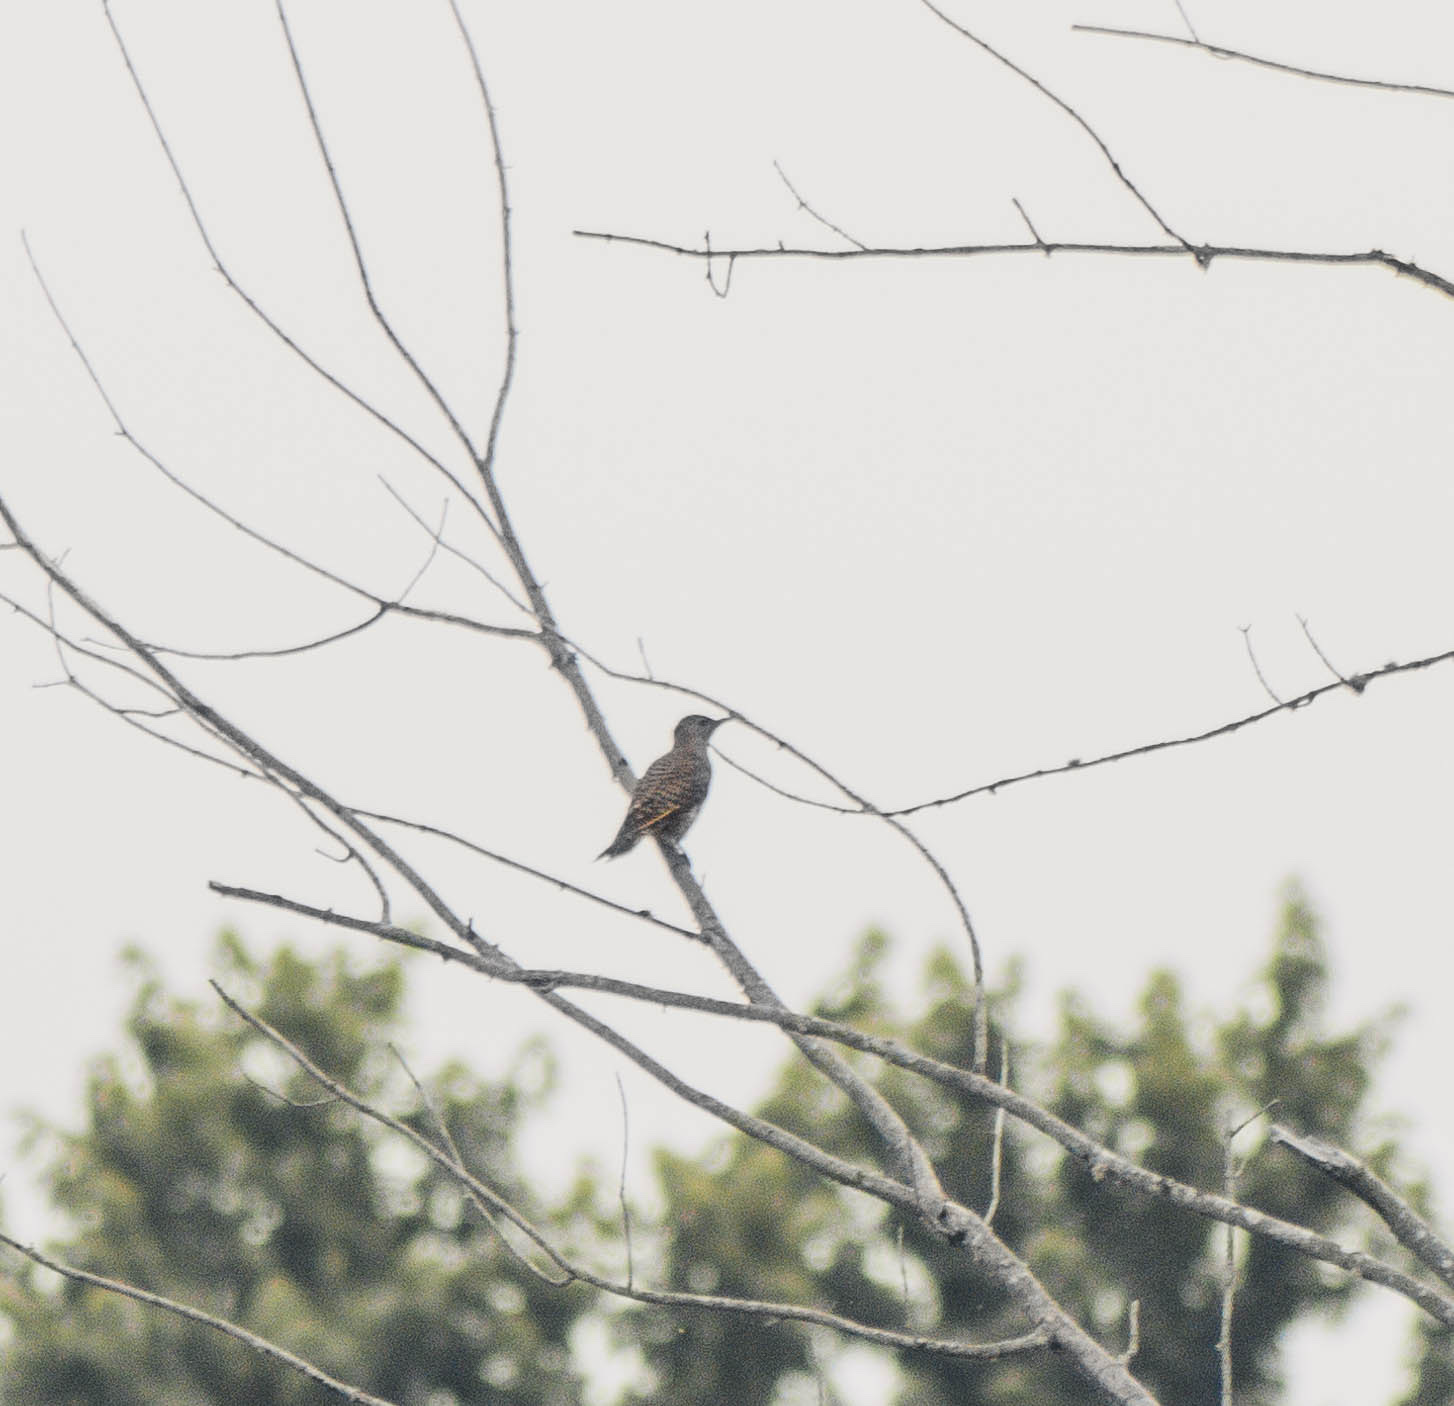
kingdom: Animalia
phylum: Chordata
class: Aves
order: Piciformes
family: Picidae
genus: Colaptes
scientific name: Colaptes auratus
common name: Northern flicker
